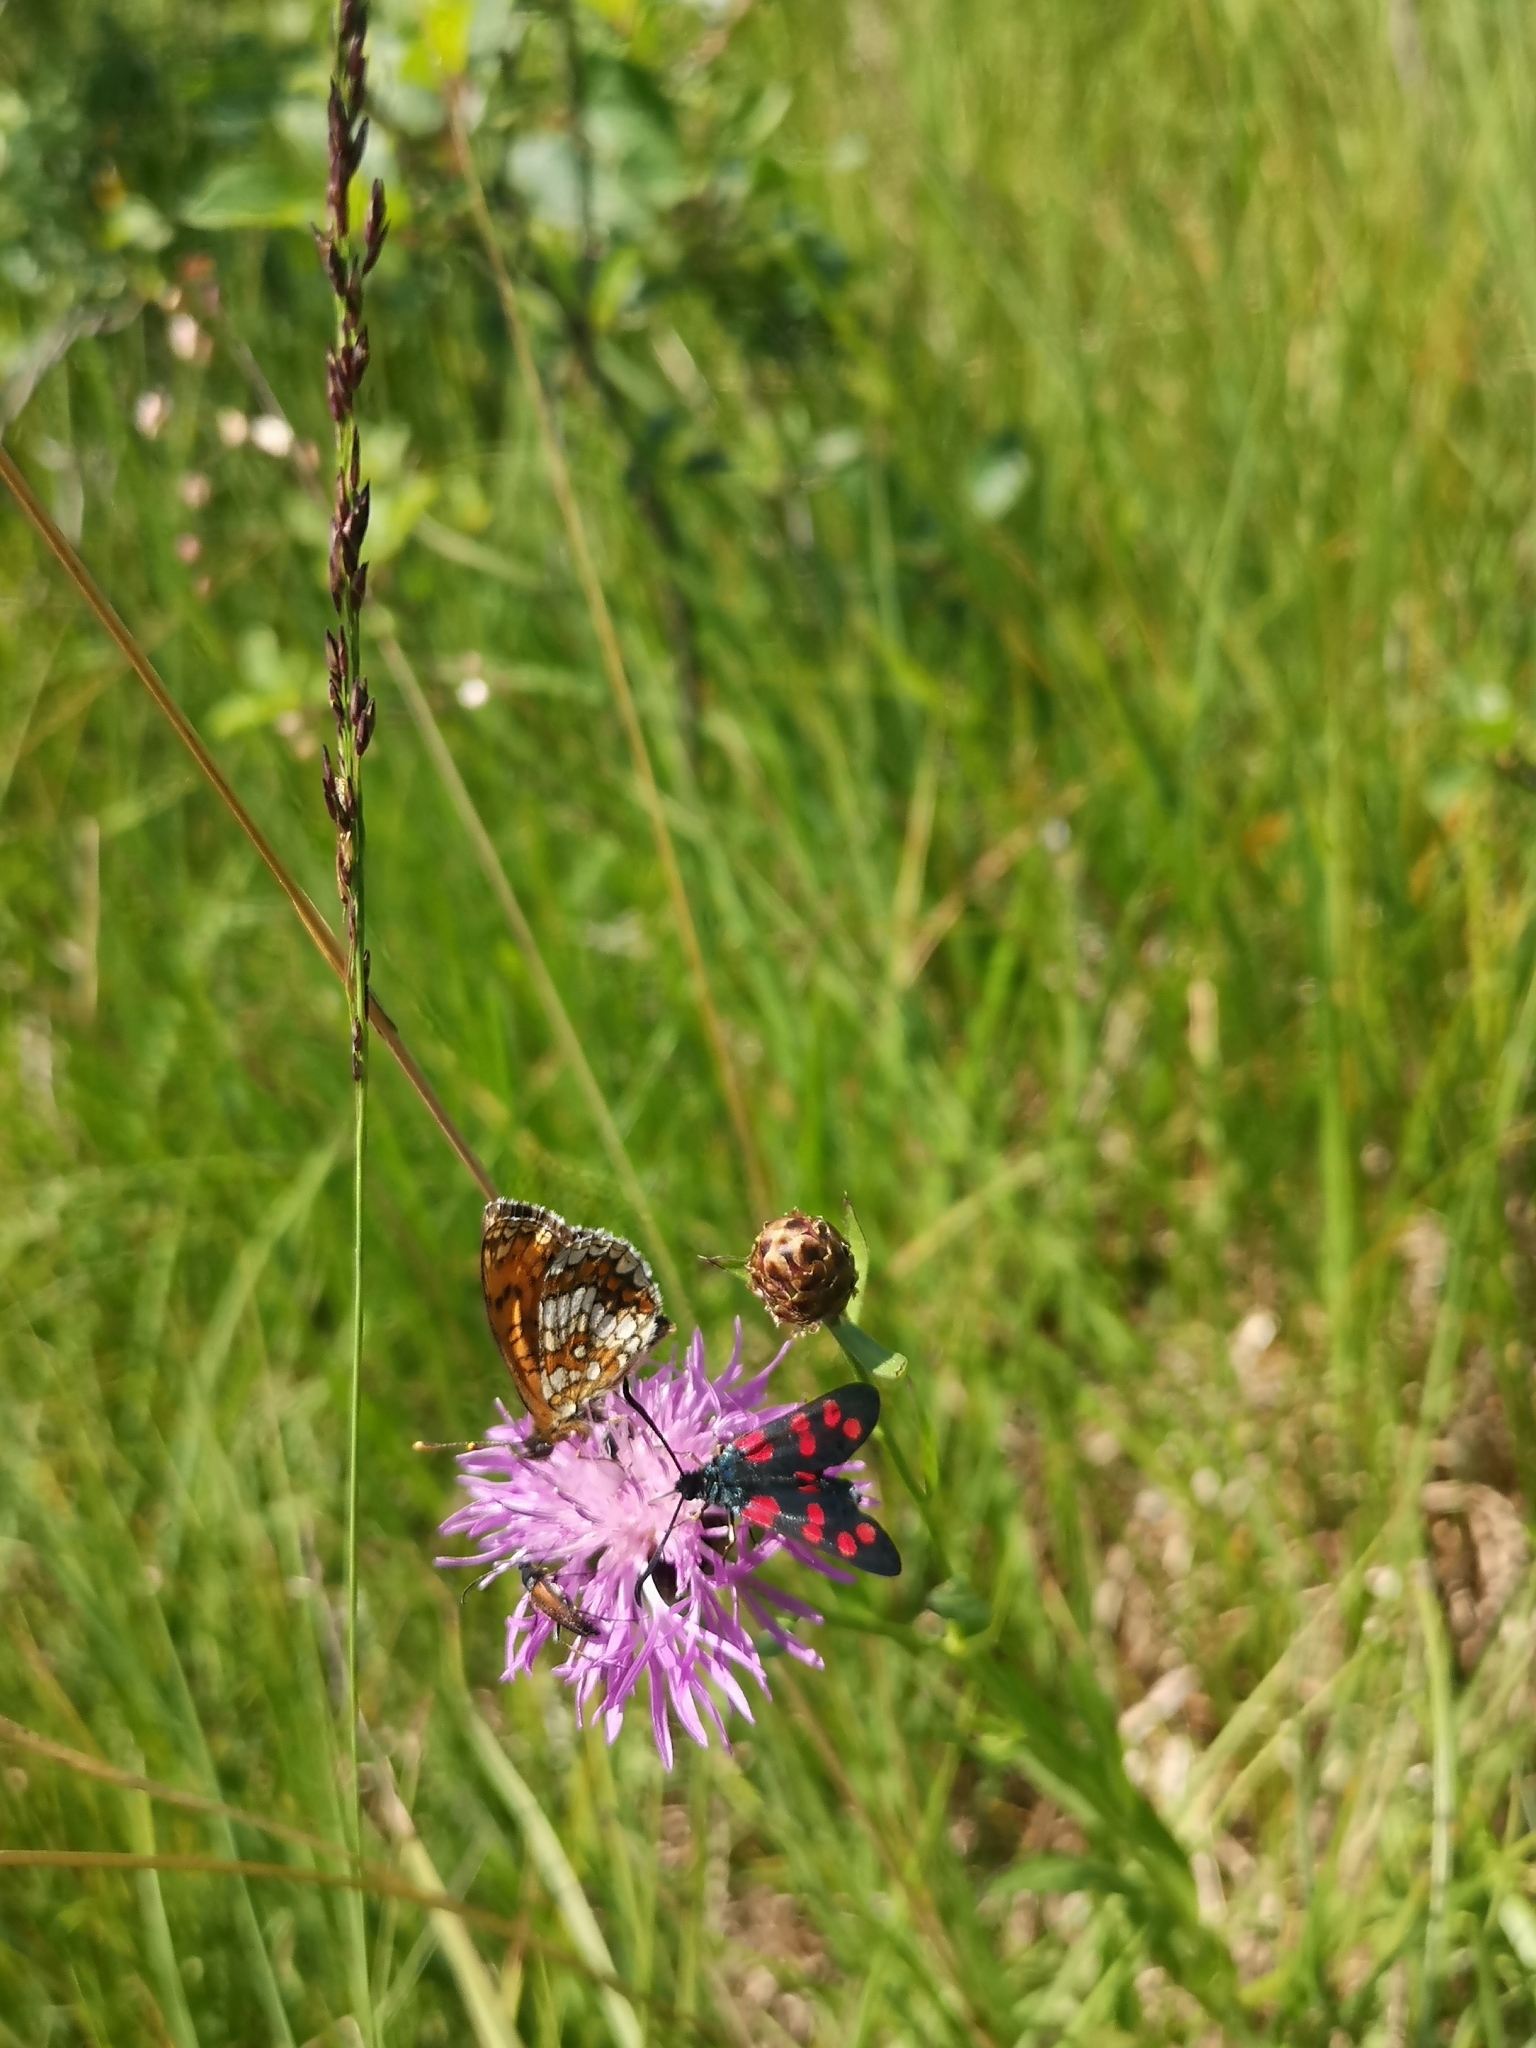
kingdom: Animalia
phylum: Arthropoda
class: Insecta
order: Lepidoptera
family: Zygaenidae
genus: Zygaena
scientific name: Zygaena filipendulae
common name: Six-spot burnet
